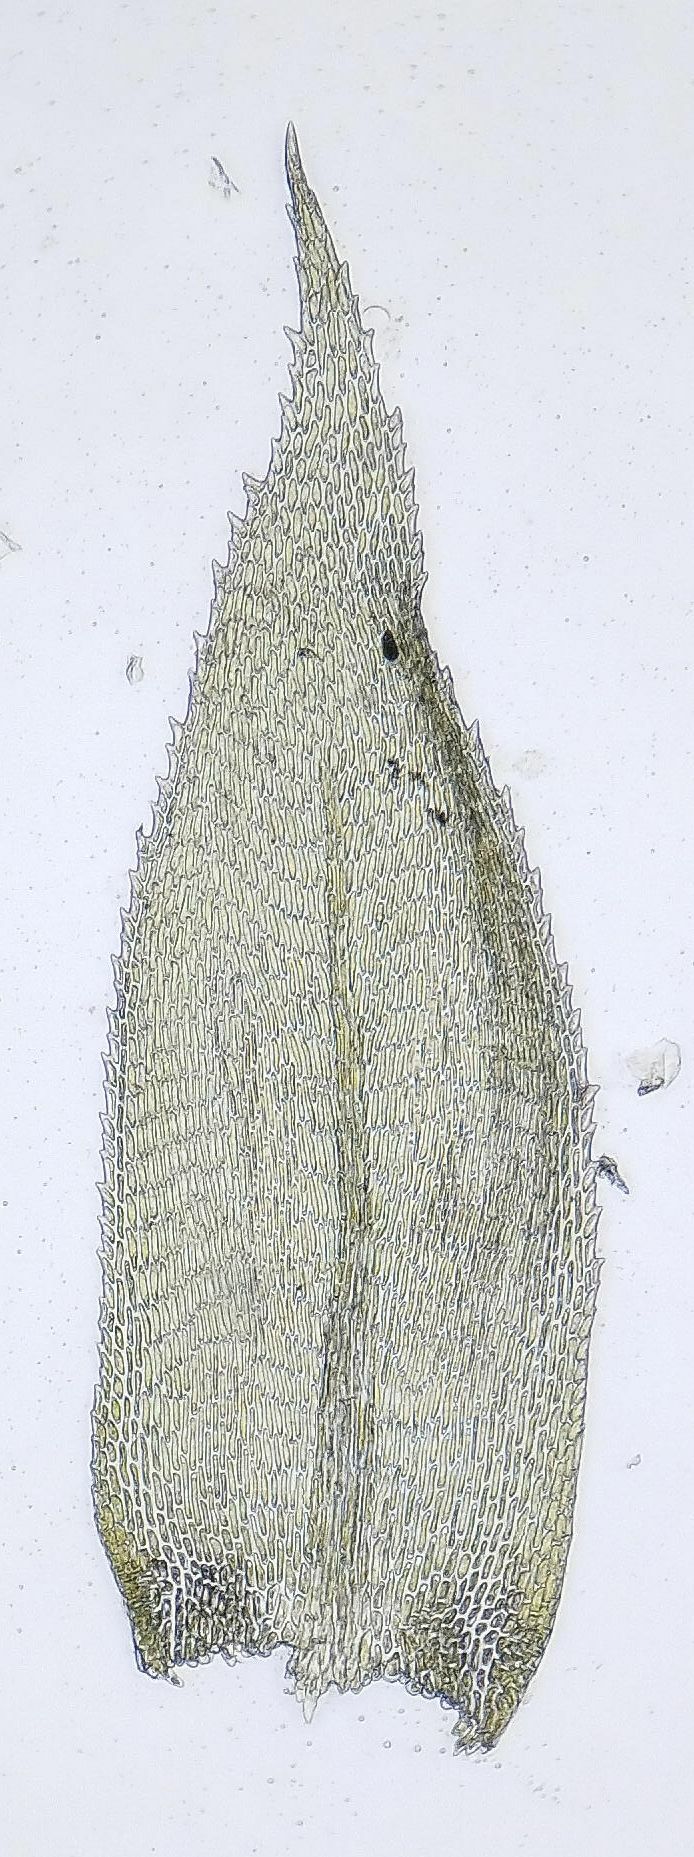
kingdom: Plantae
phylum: Bryophyta
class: Bryopsida
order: Hypnales
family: Lembophyllaceae
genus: Pseudisothecium
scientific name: Pseudisothecium myosuroides
